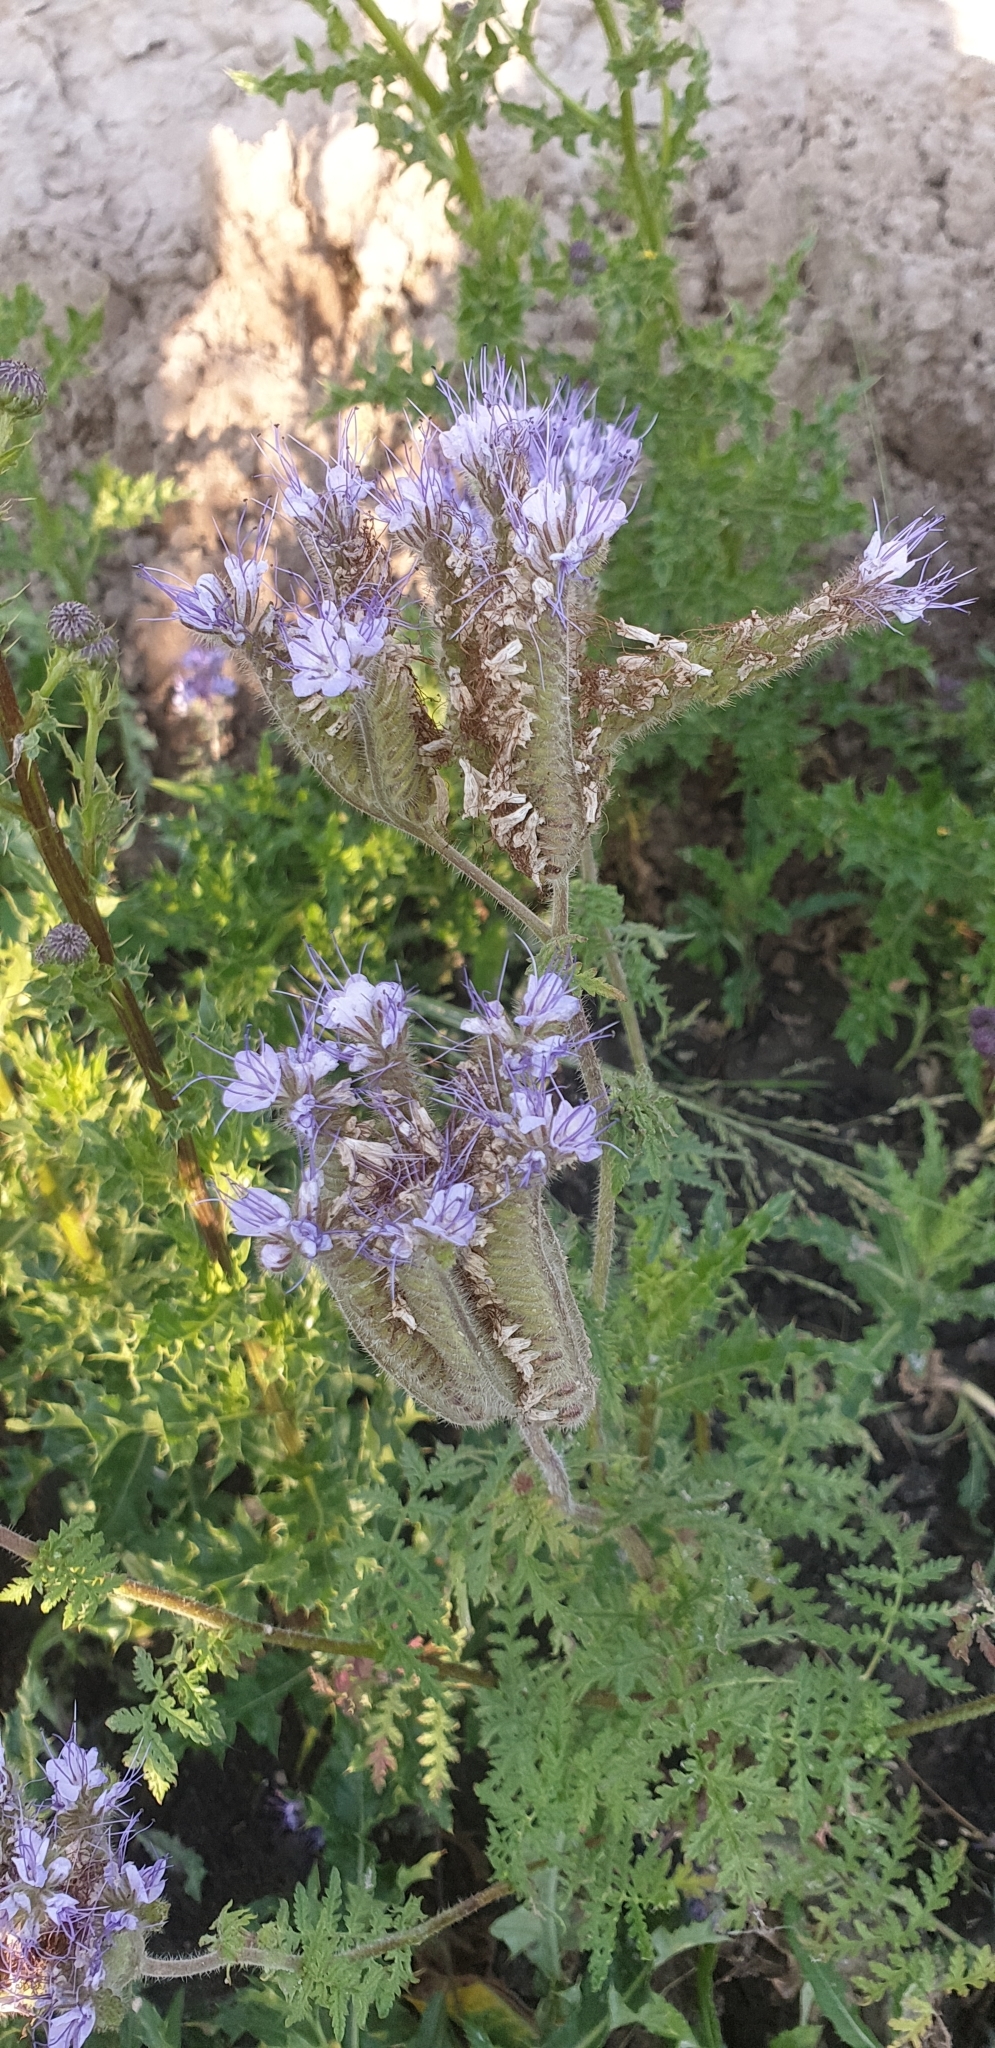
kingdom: Plantae
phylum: Tracheophyta
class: Magnoliopsida
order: Boraginales
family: Hydrophyllaceae
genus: Phacelia
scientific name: Phacelia tanacetifolia
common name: Phacelia
